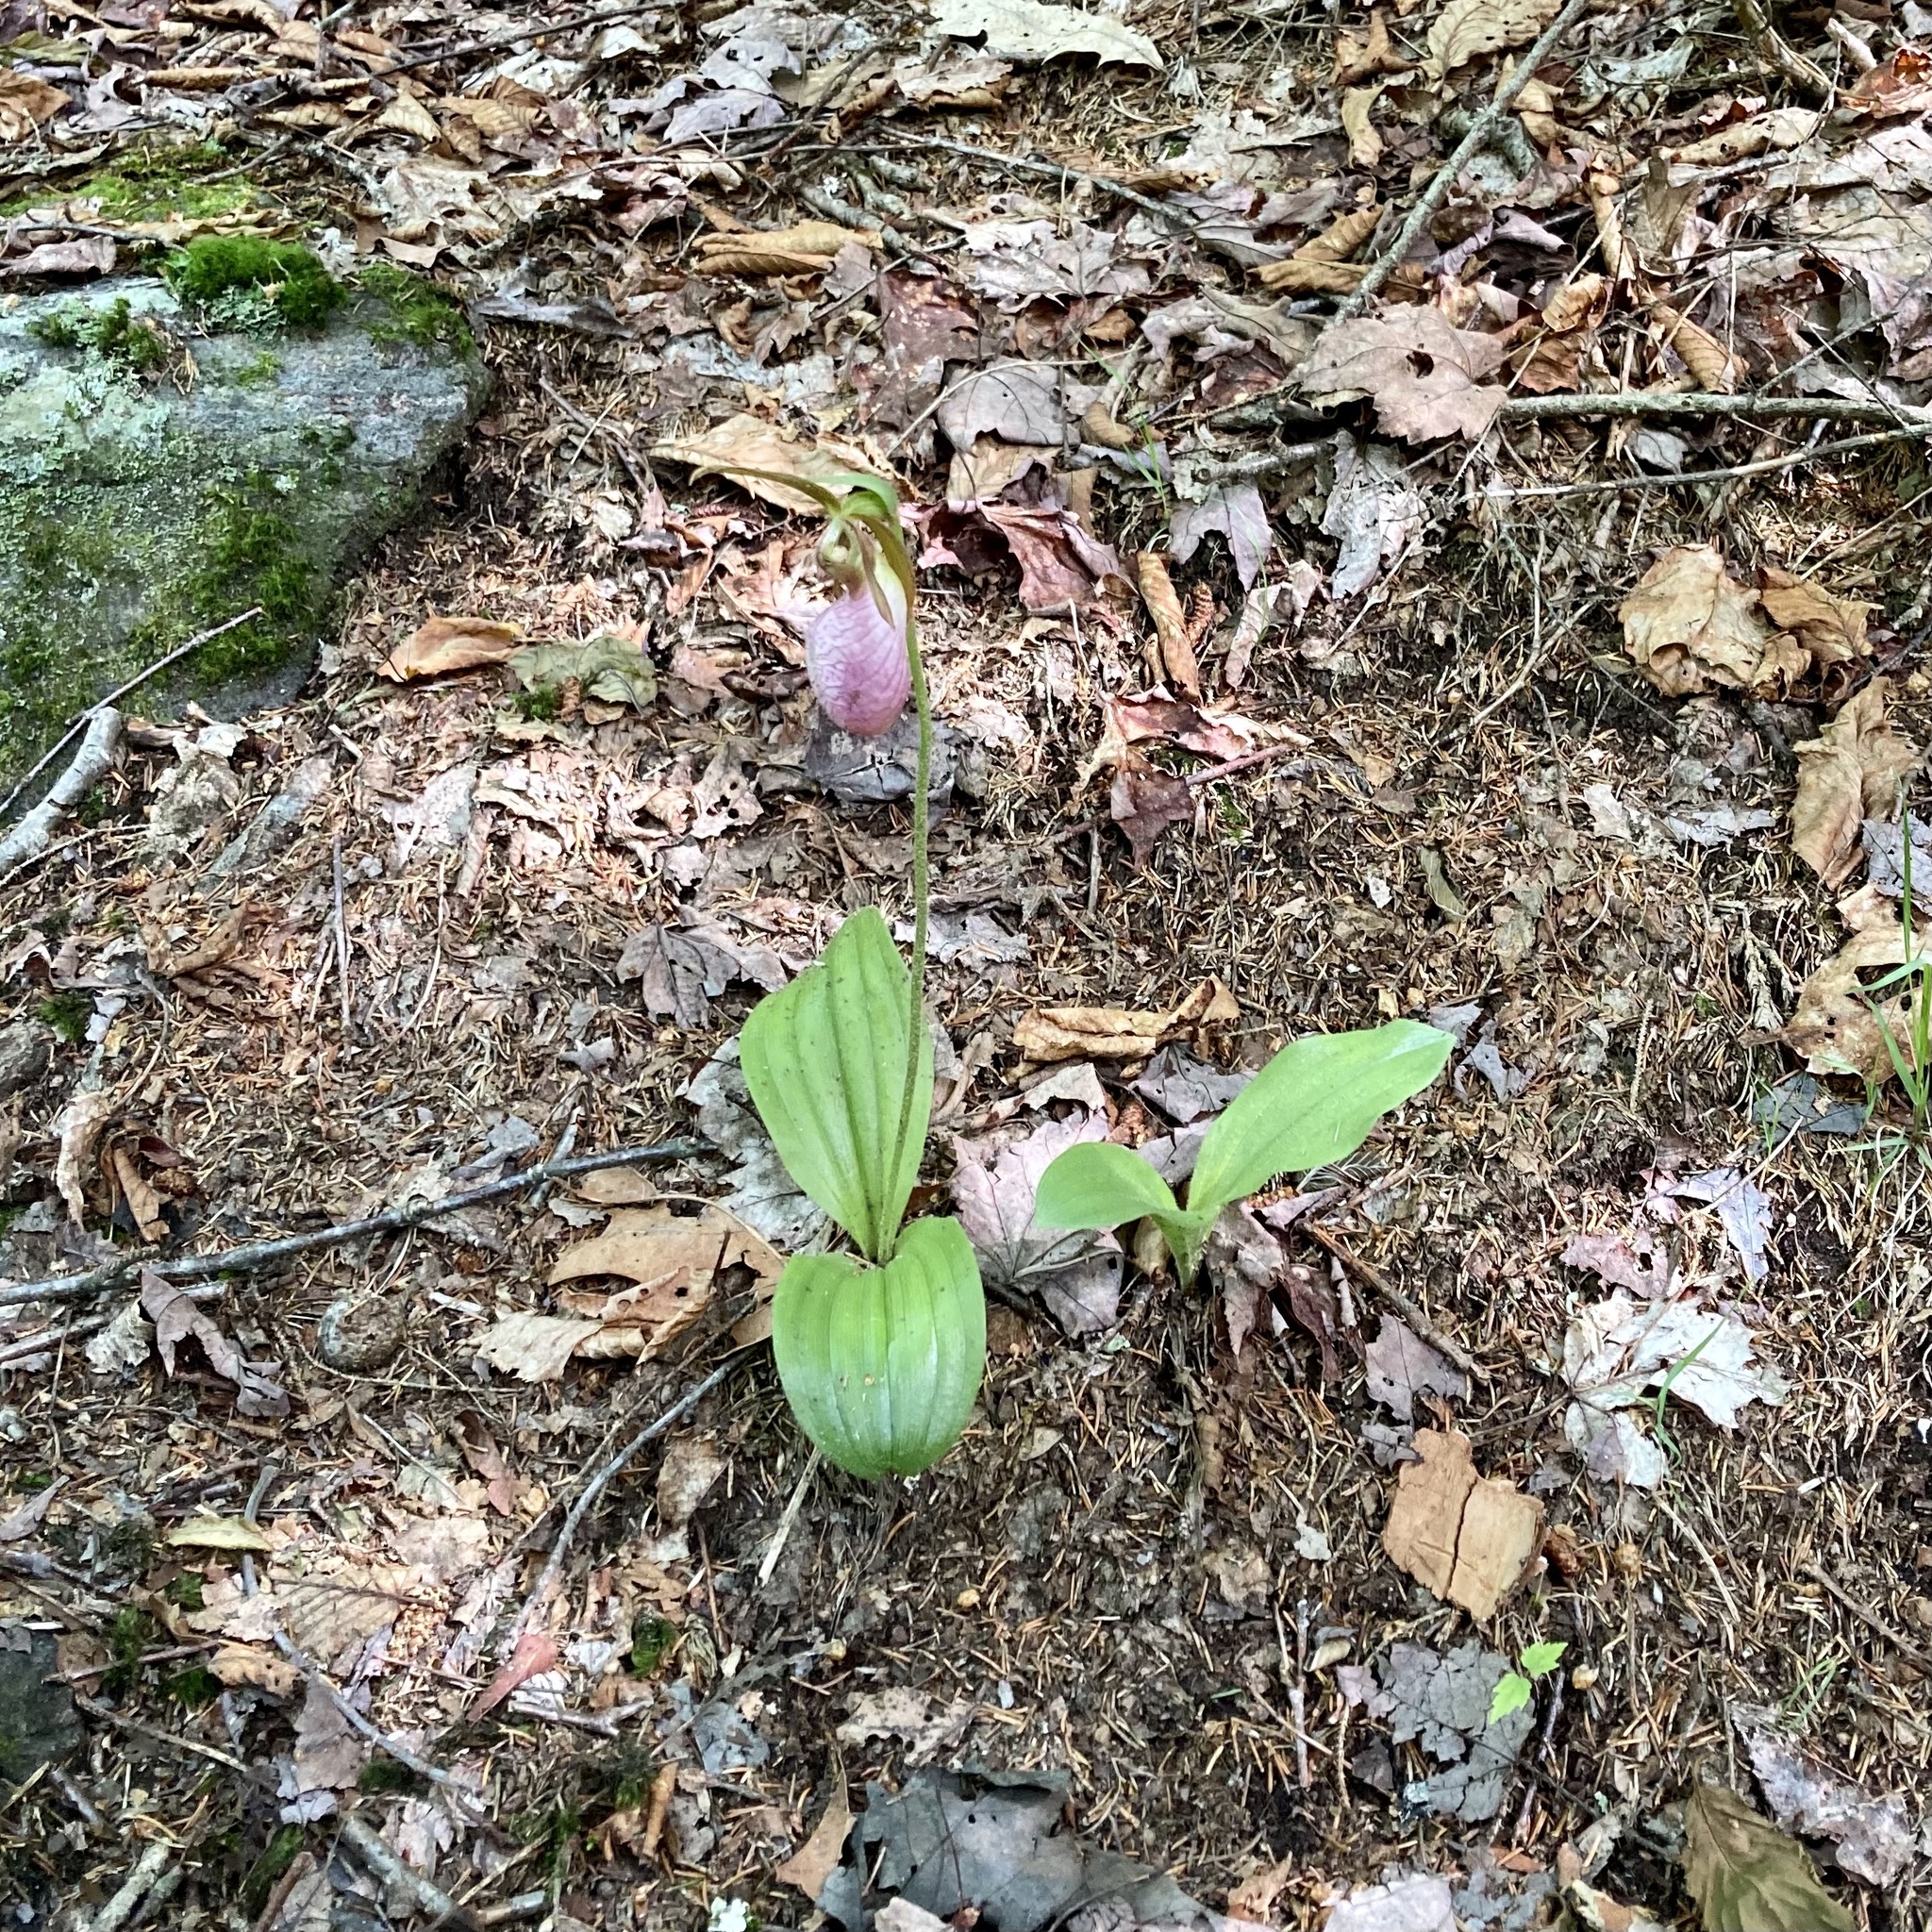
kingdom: Plantae
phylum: Tracheophyta
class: Liliopsida
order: Asparagales
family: Orchidaceae
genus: Cypripedium
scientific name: Cypripedium acaule
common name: Pink lady's-slipper
